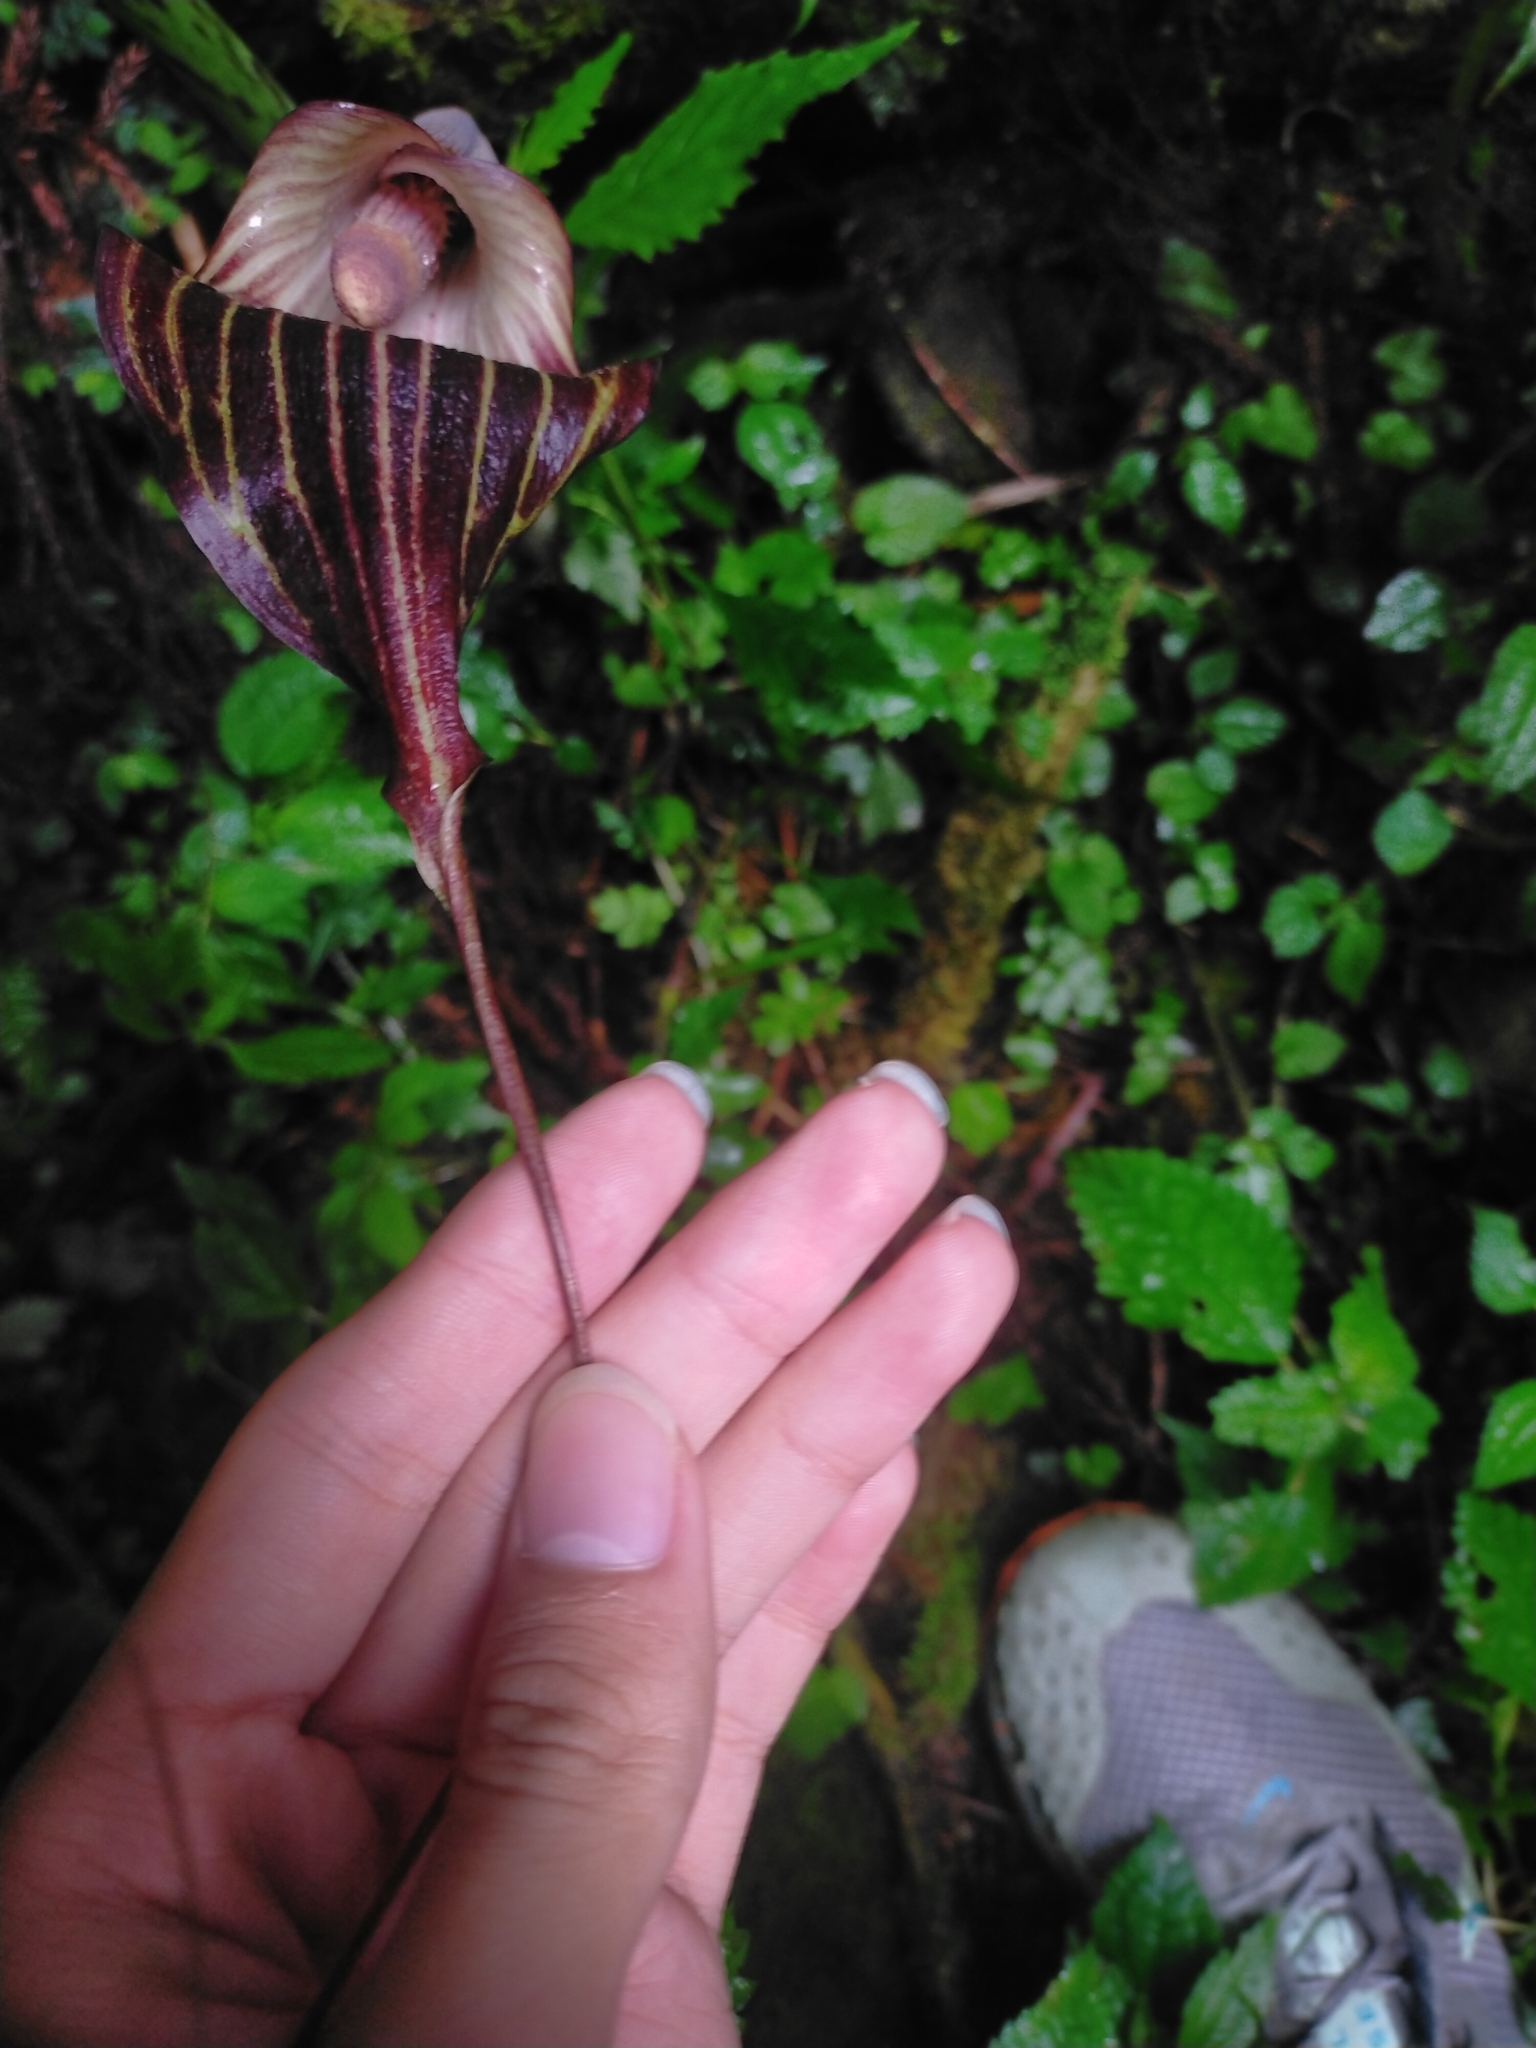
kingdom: Plantae
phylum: Tracheophyta
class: Liliopsida
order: Alismatales
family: Araceae
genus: Arisaema
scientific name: Arisaema taiwanense
